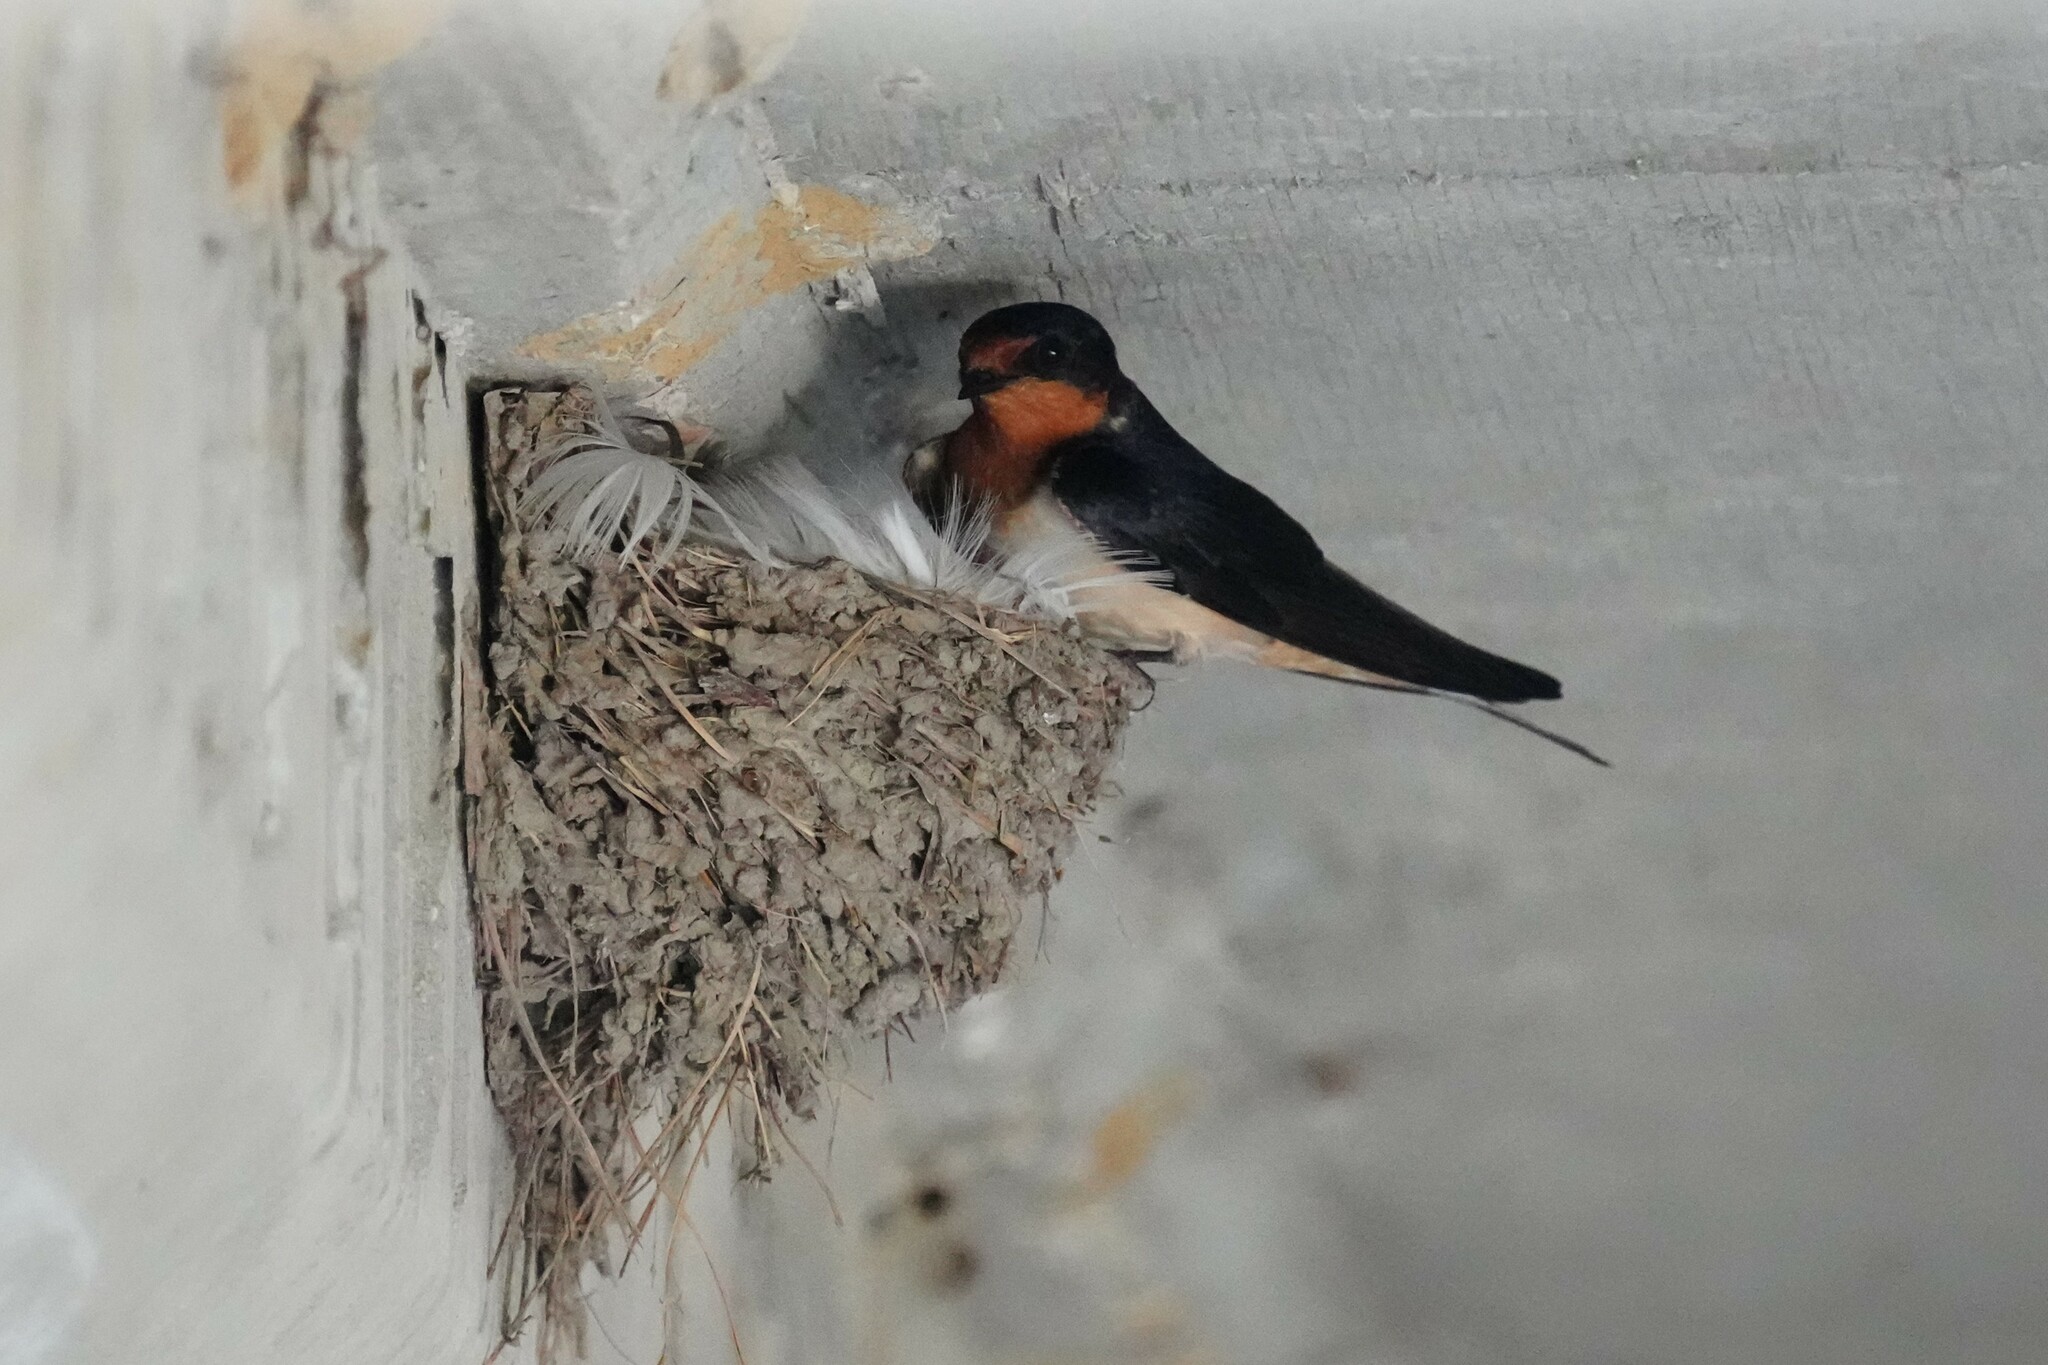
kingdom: Animalia
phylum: Chordata
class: Aves
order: Passeriformes
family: Hirundinidae
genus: Hirundo
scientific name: Hirundo rustica
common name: Barn swallow
